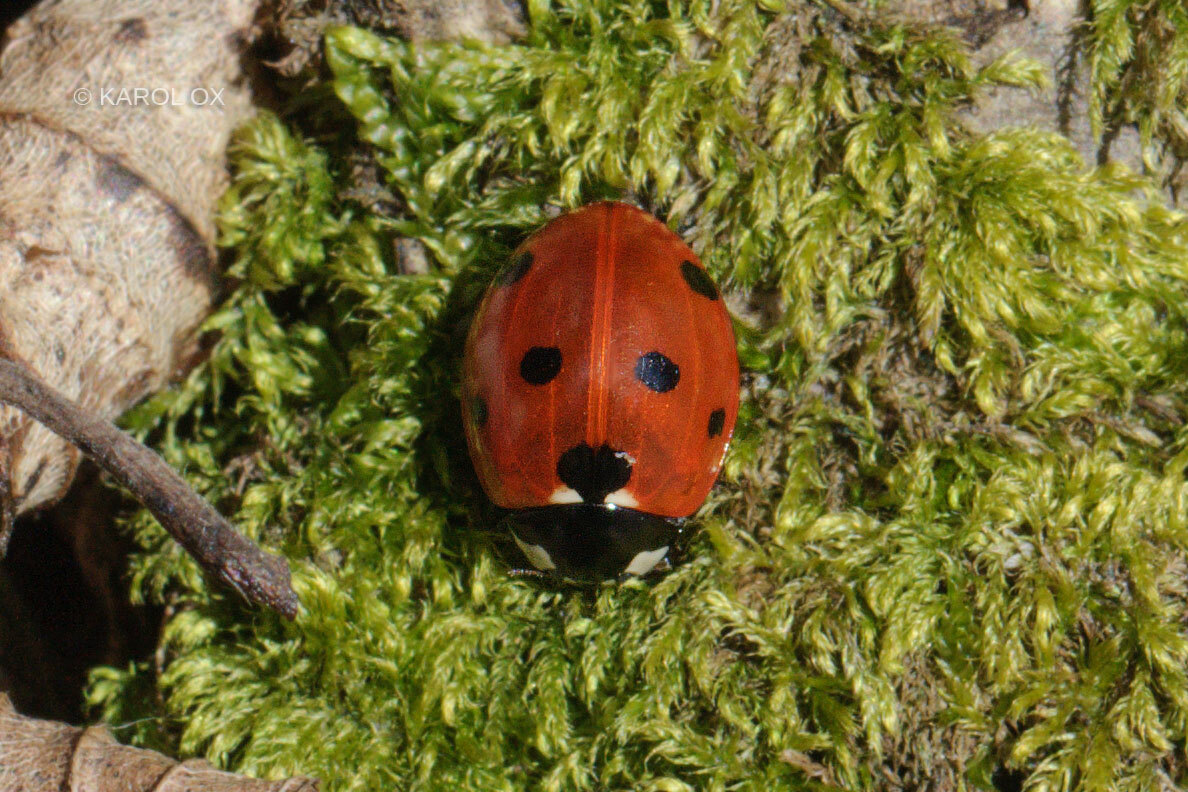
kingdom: Animalia
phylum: Arthropoda
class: Insecta
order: Coleoptera
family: Coccinellidae
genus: Coccinella
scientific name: Coccinella septempunctata
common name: Sevenspotted lady beetle
